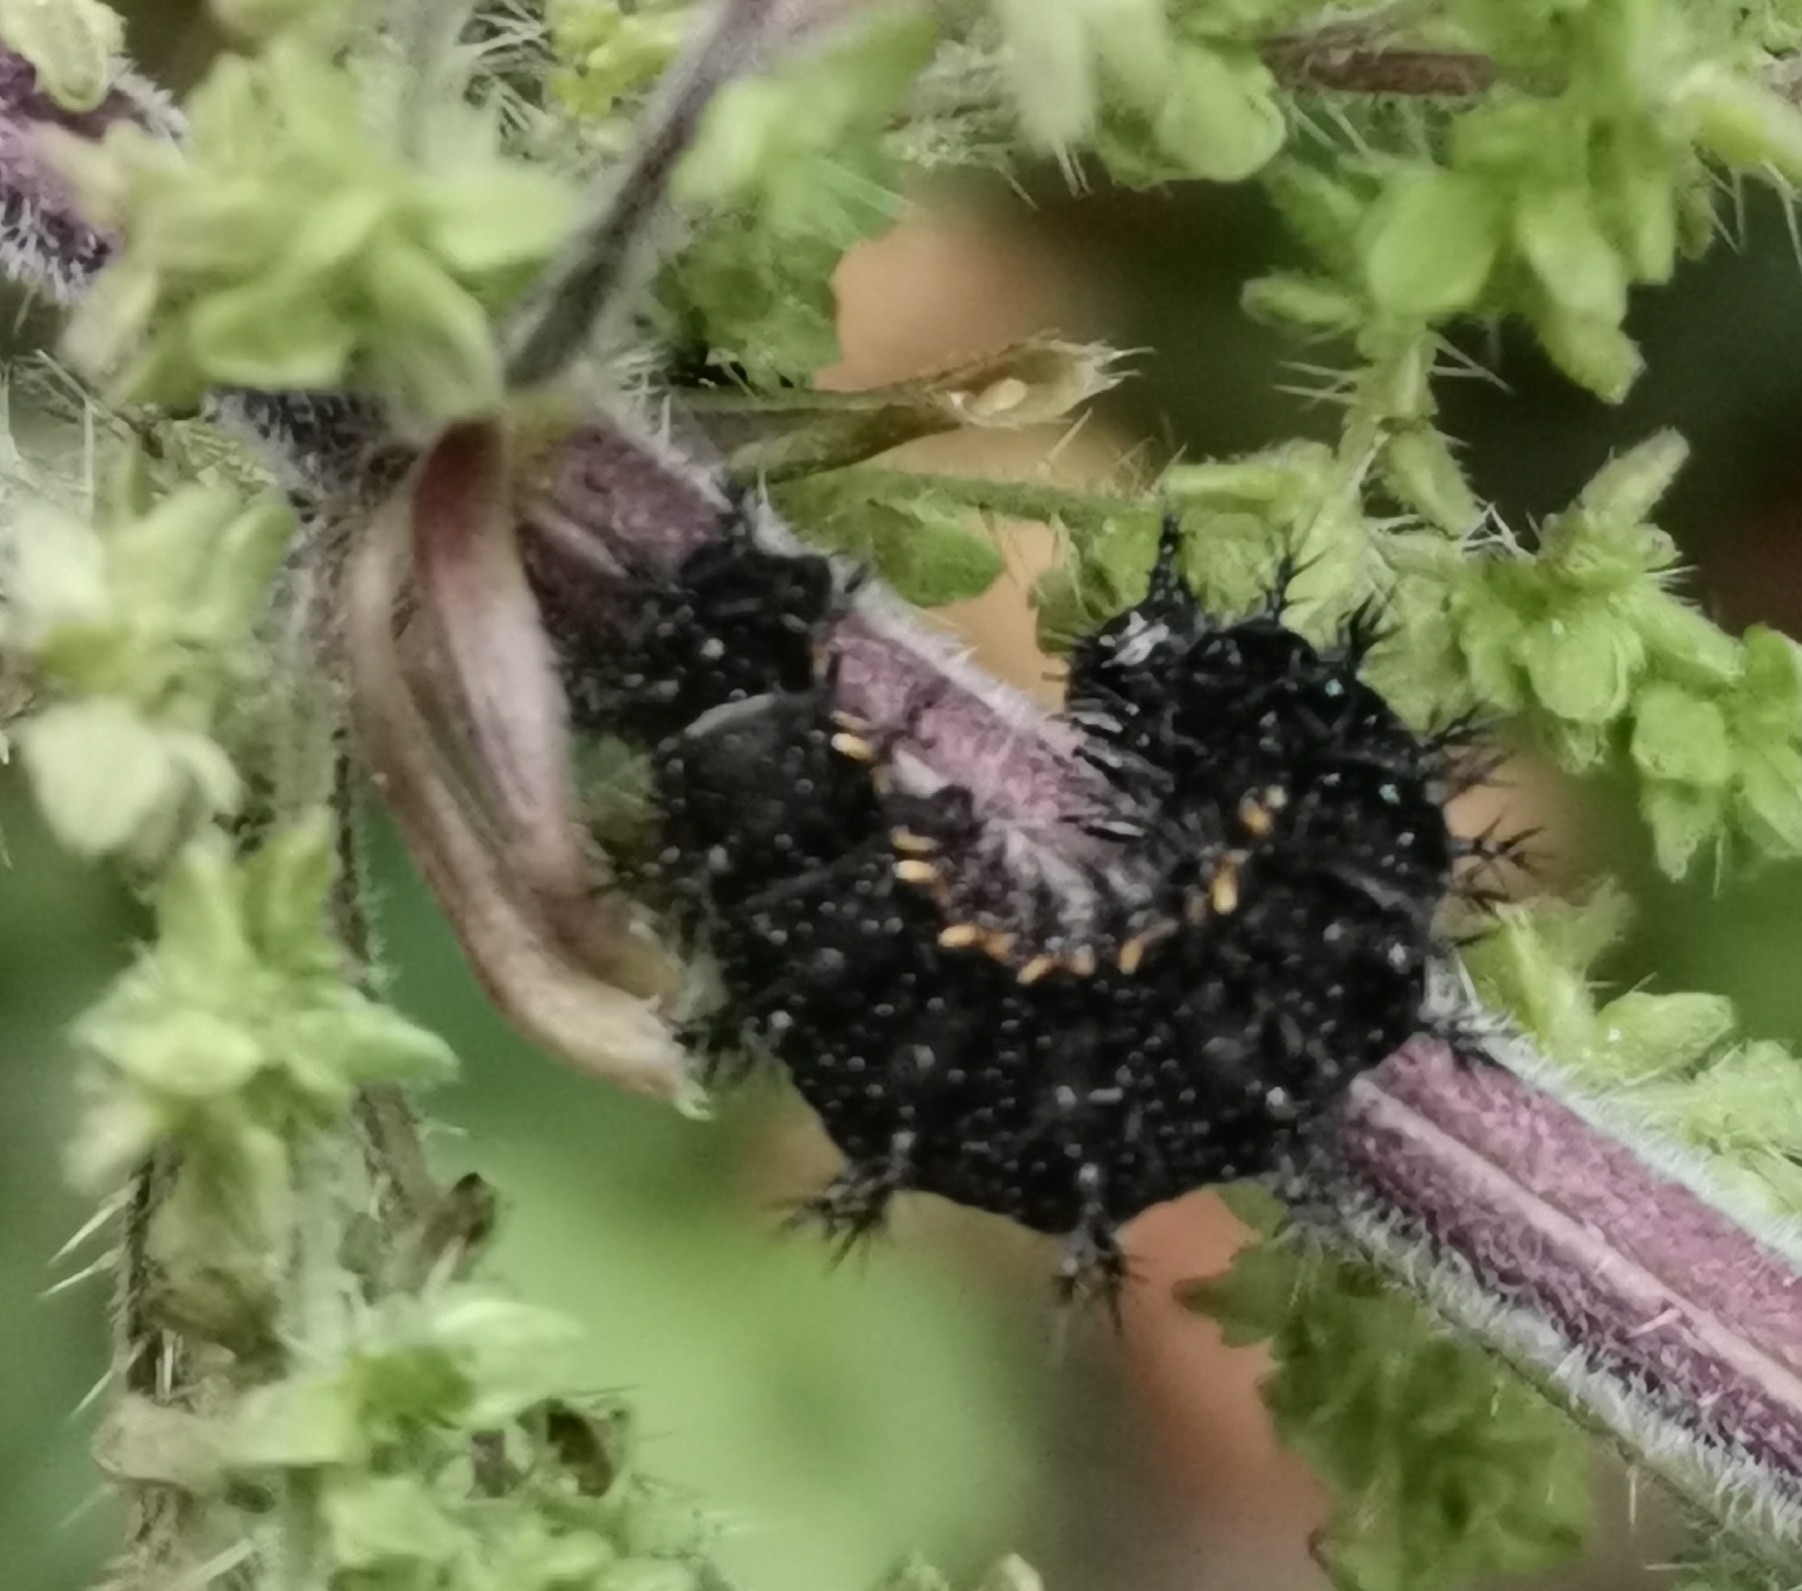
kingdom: Animalia
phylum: Arthropoda
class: Insecta
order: Lepidoptera
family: Nymphalidae
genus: Araschnia
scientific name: Araschnia levana
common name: Map butterfly
